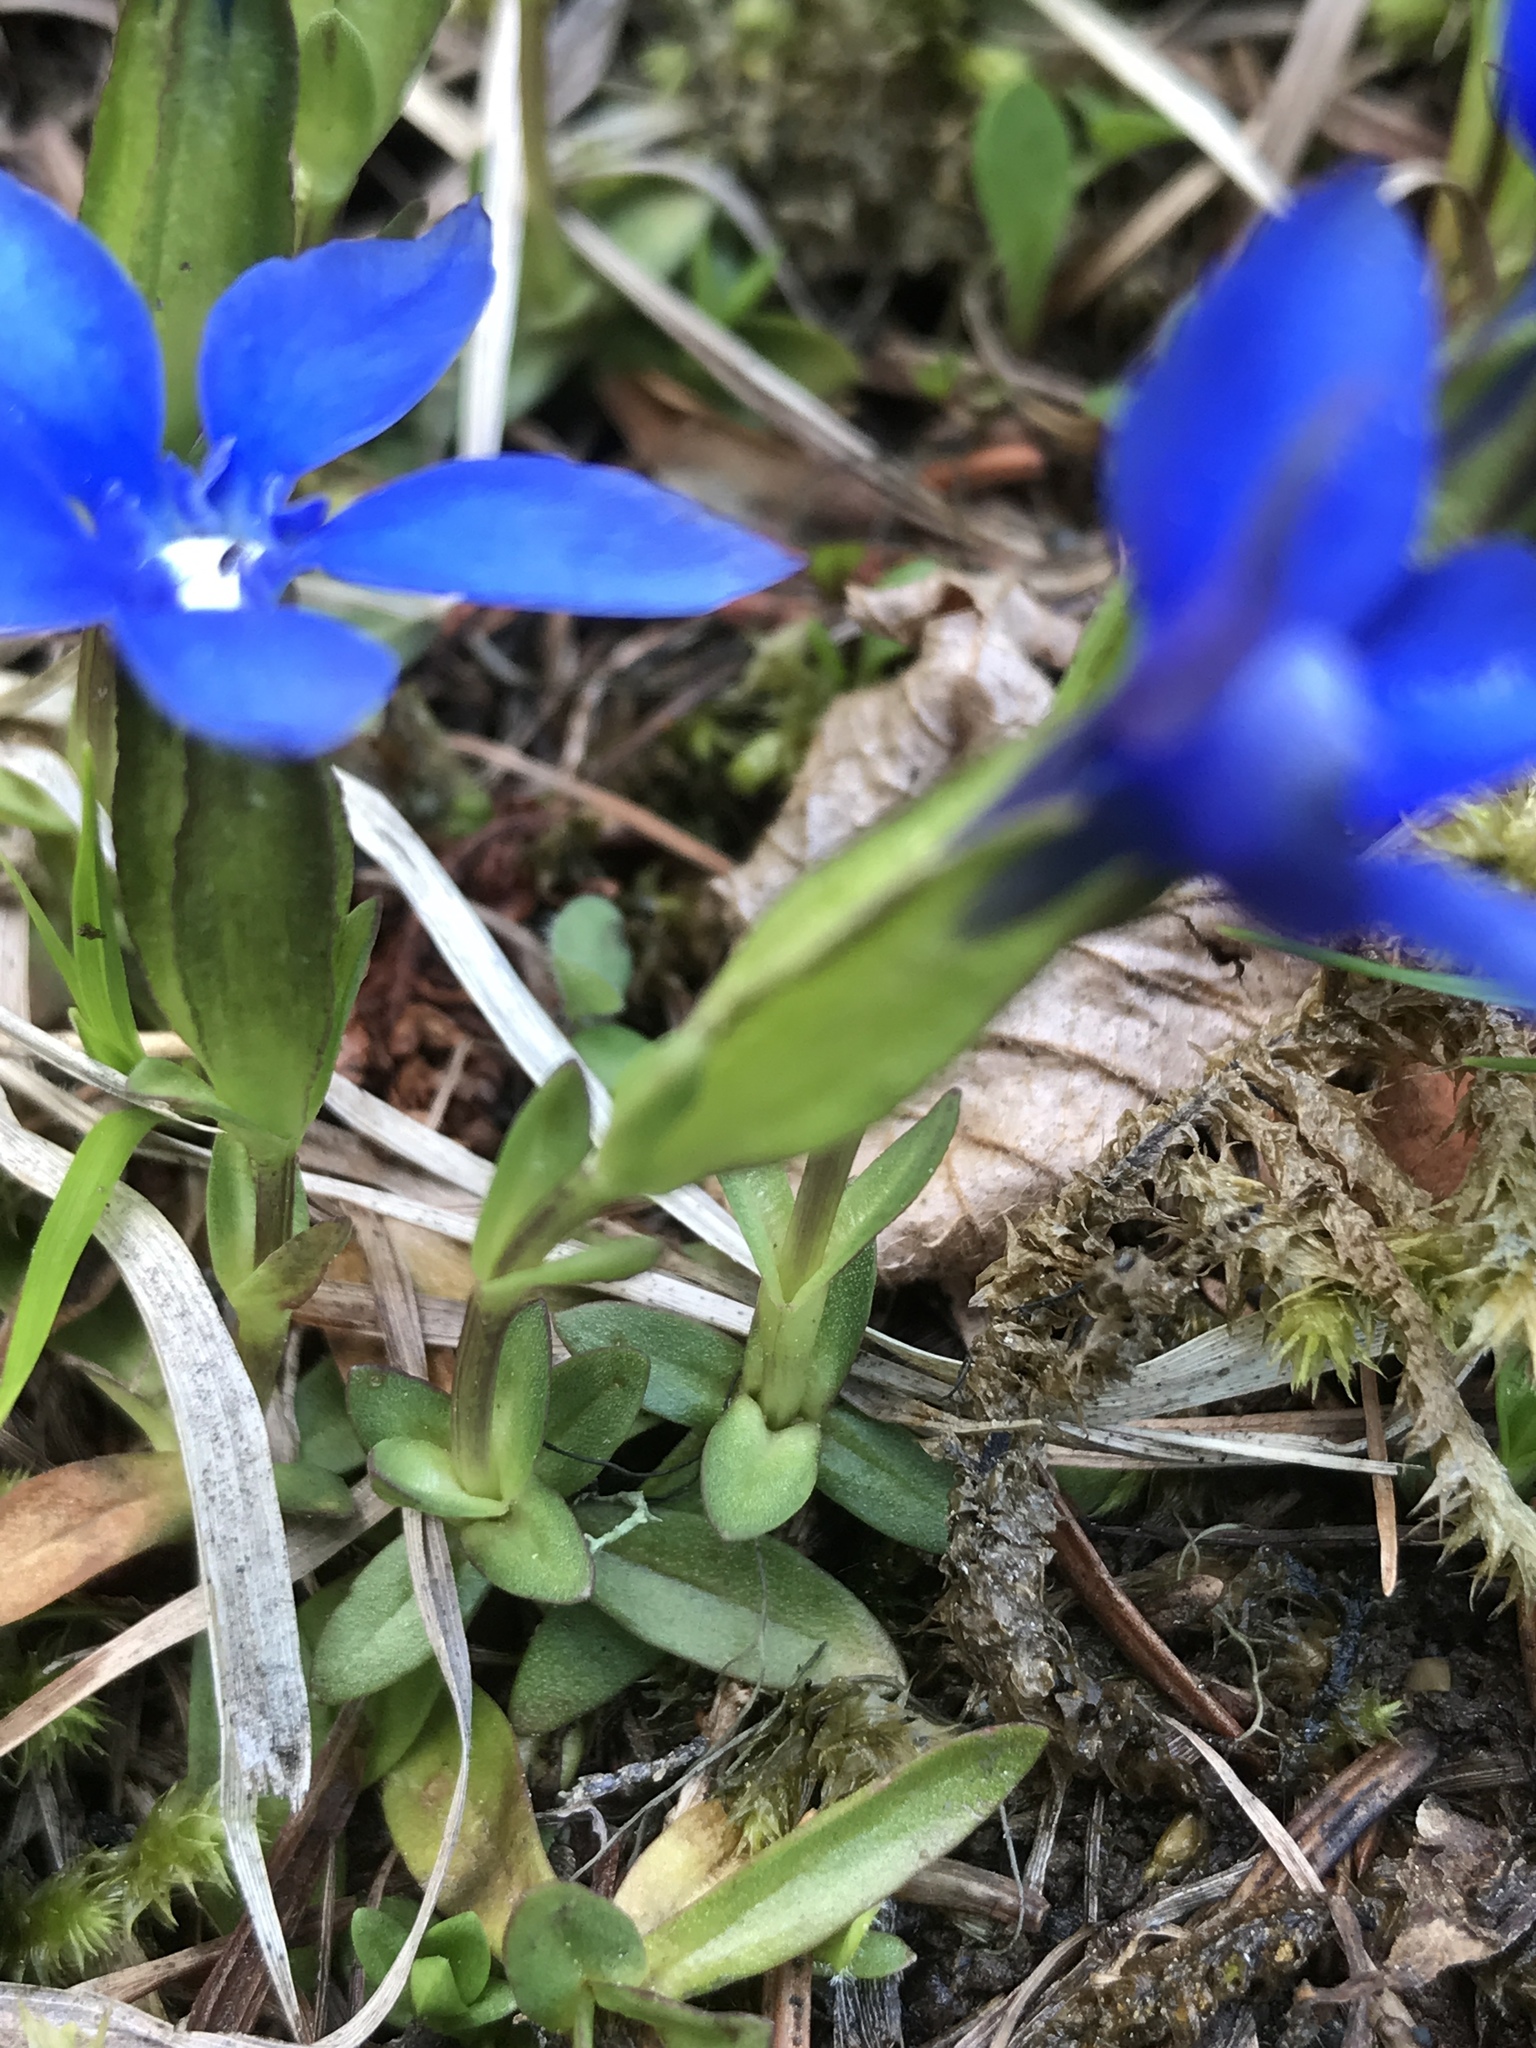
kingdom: Plantae
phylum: Tracheophyta
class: Magnoliopsida
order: Gentianales
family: Gentianaceae
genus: Gentiana
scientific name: Gentiana verna
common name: Spring gentian
